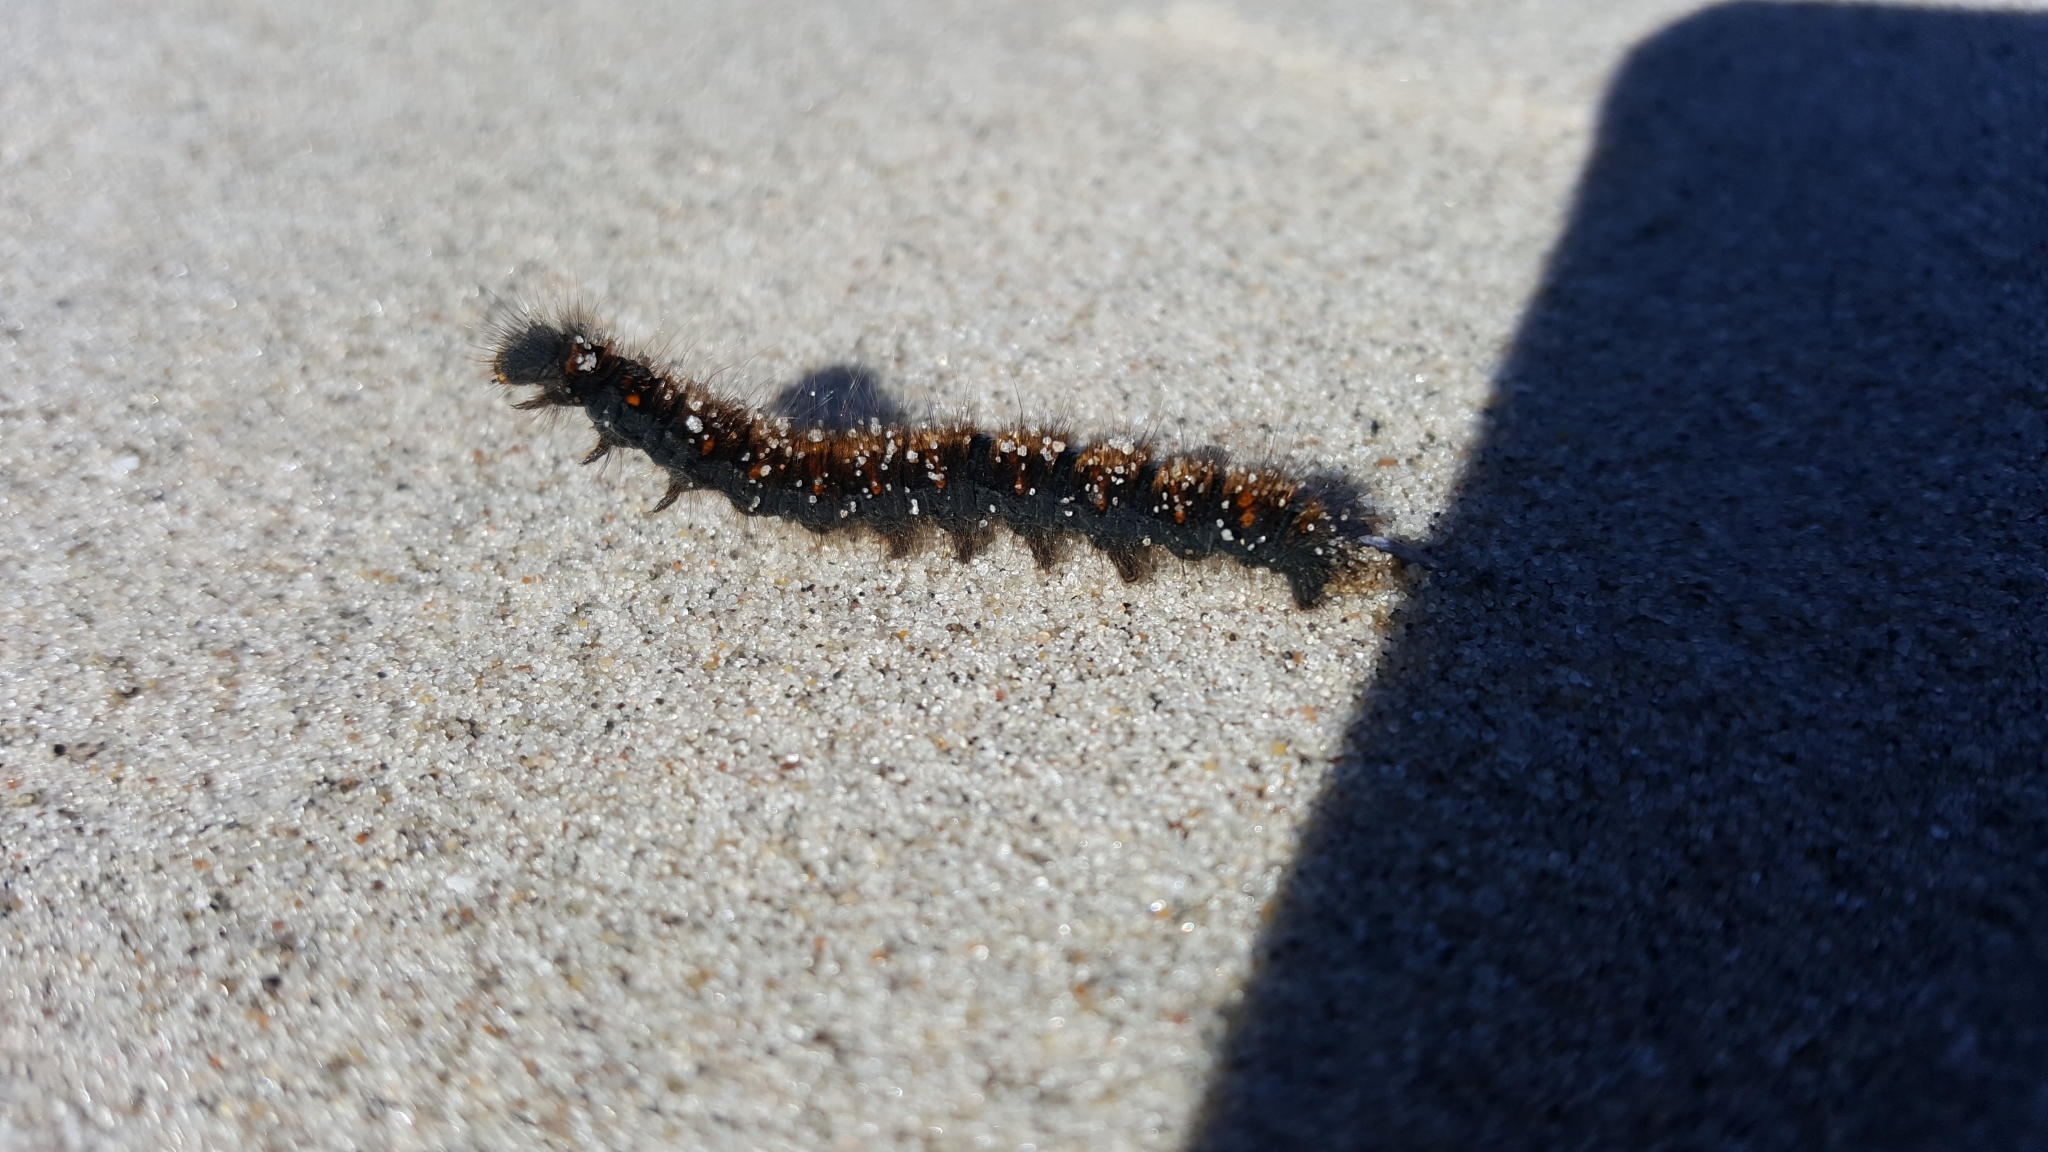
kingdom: Animalia
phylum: Arthropoda
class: Insecta
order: Lepidoptera
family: Lasiocampidae
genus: Macrothylacia
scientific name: Macrothylacia rubi
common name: Fox moth
